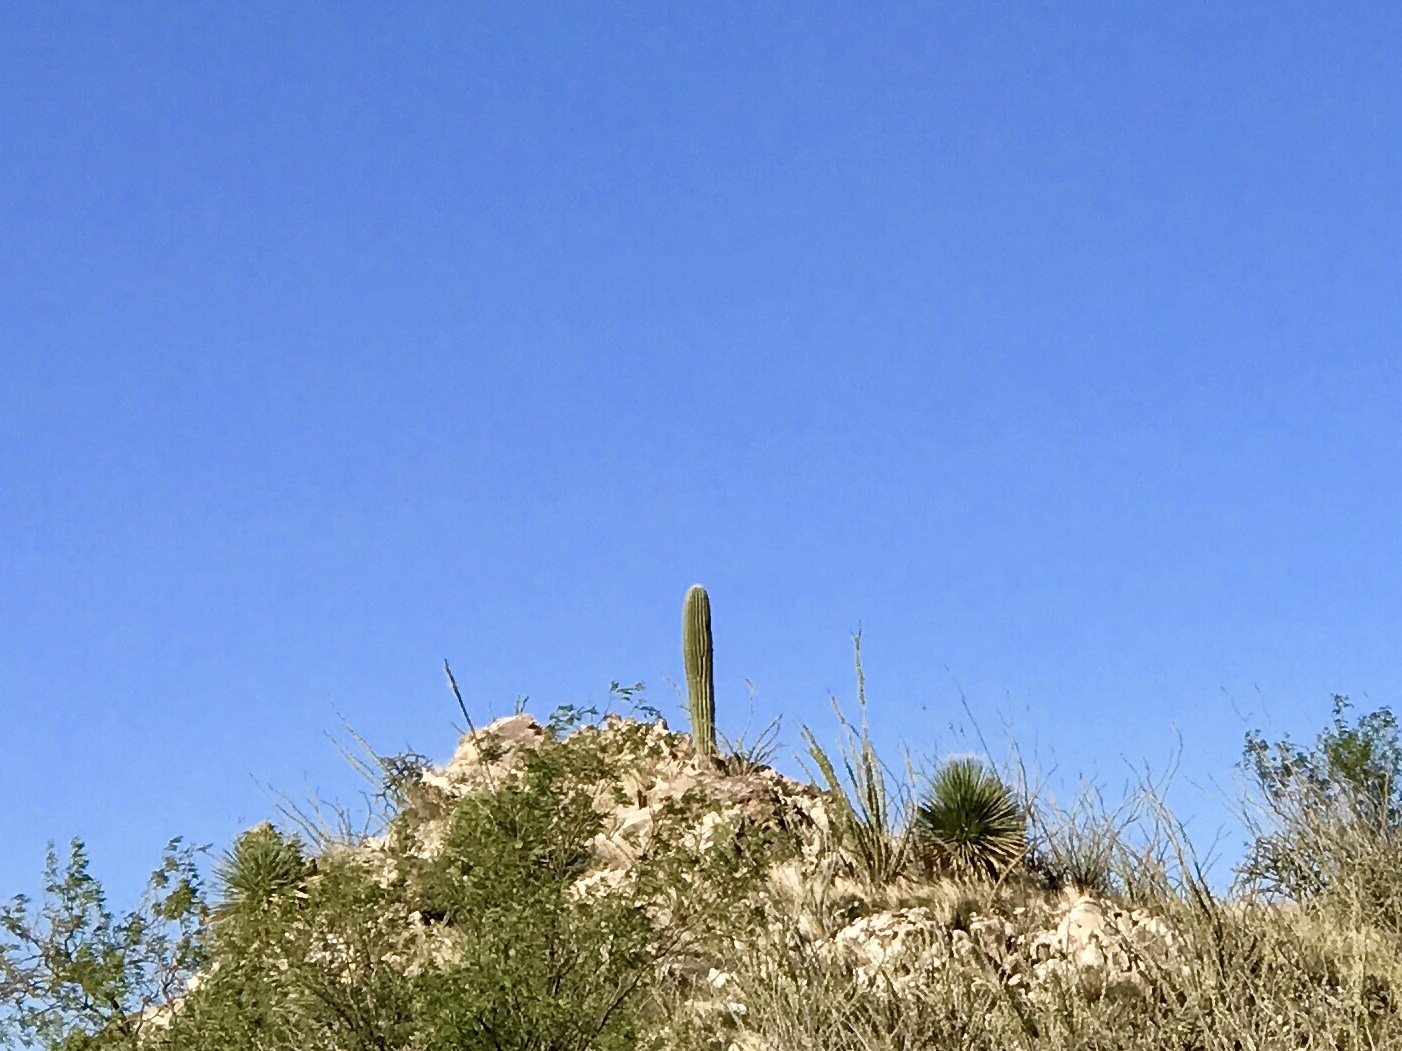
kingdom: Plantae
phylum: Tracheophyta
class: Magnoliopsida
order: Caryophyllales
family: Cactaceae
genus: Carnegiea
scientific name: Carnegiea gigantea
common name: Saguaro
